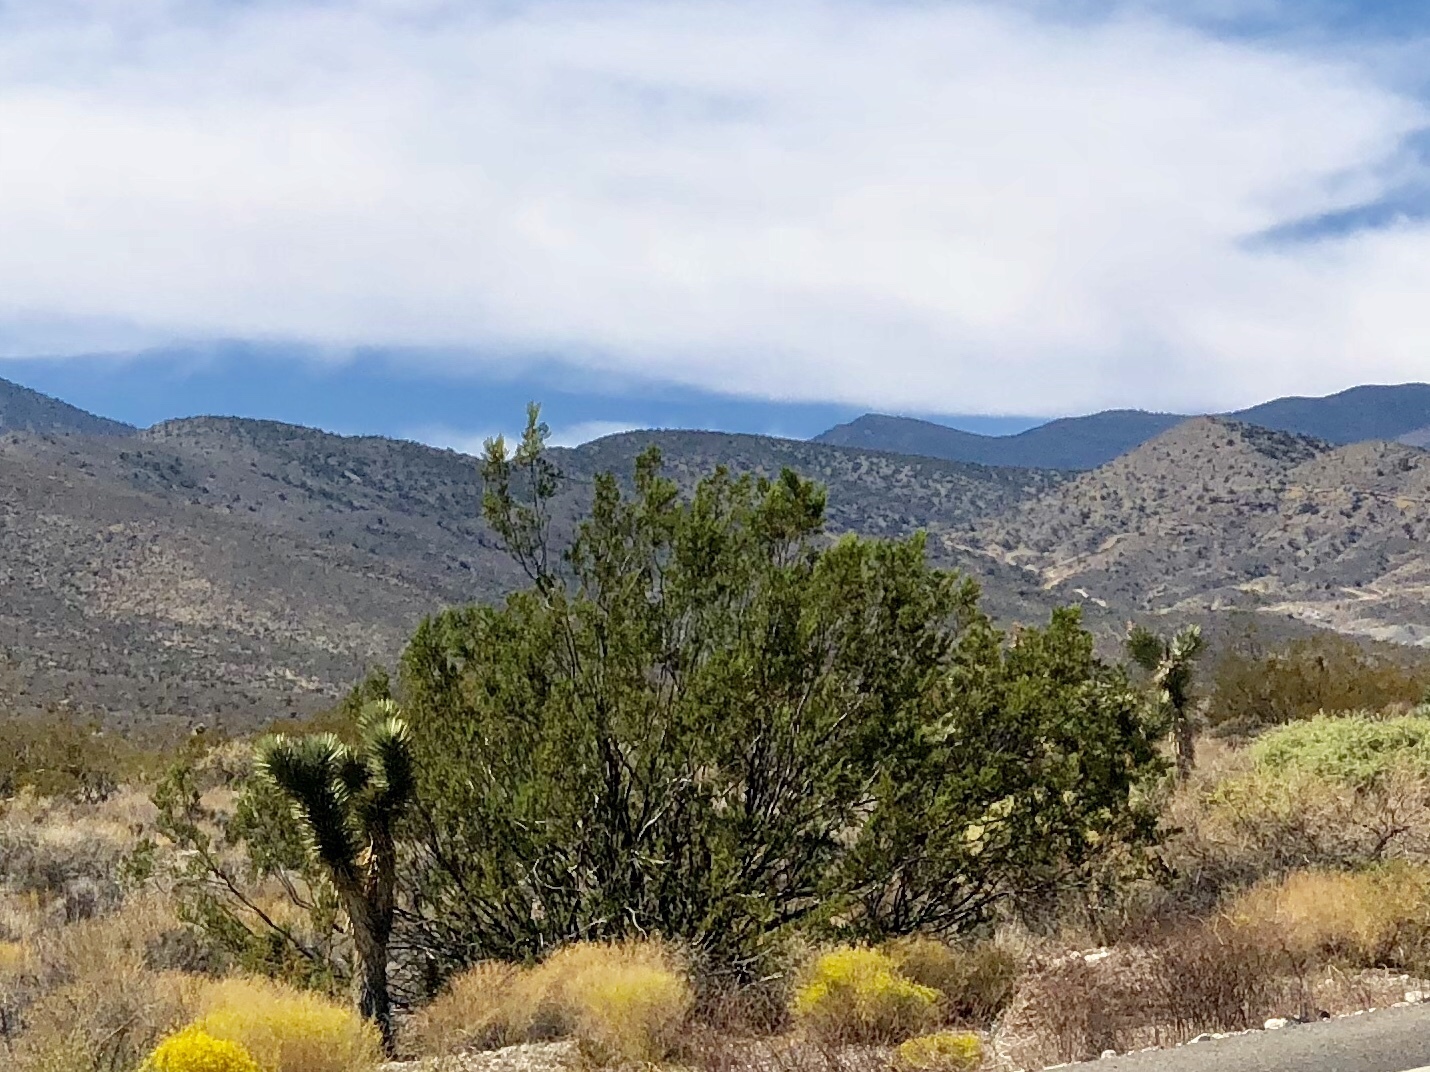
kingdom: Plantae
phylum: Tracheophyta
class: Magnoliopsida
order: Zygophyllales
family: Zygophyllaceae
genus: Larrea
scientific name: Larrea tridentata
